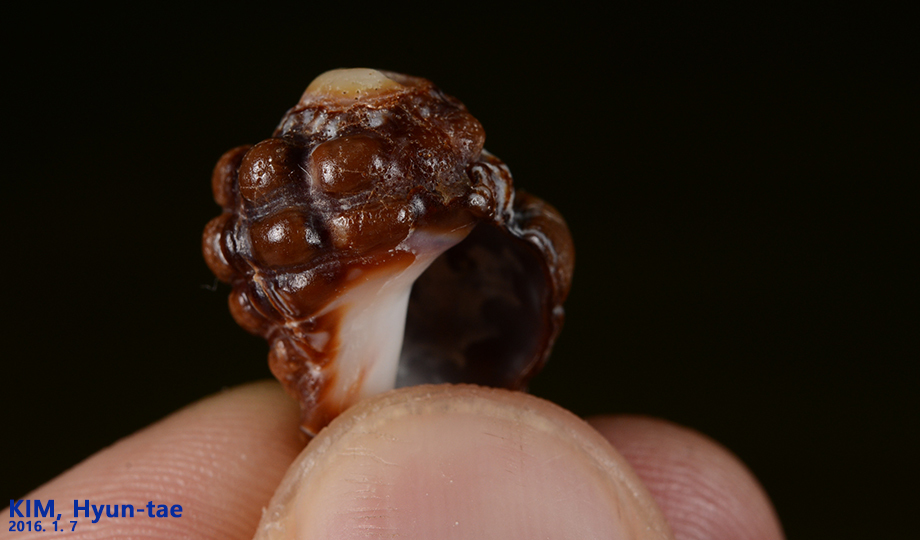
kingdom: Animalia
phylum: Mollusca
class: Gastropoda
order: Neogastropoda
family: Muricidae
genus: Reishia
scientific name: Reishia clavigera
